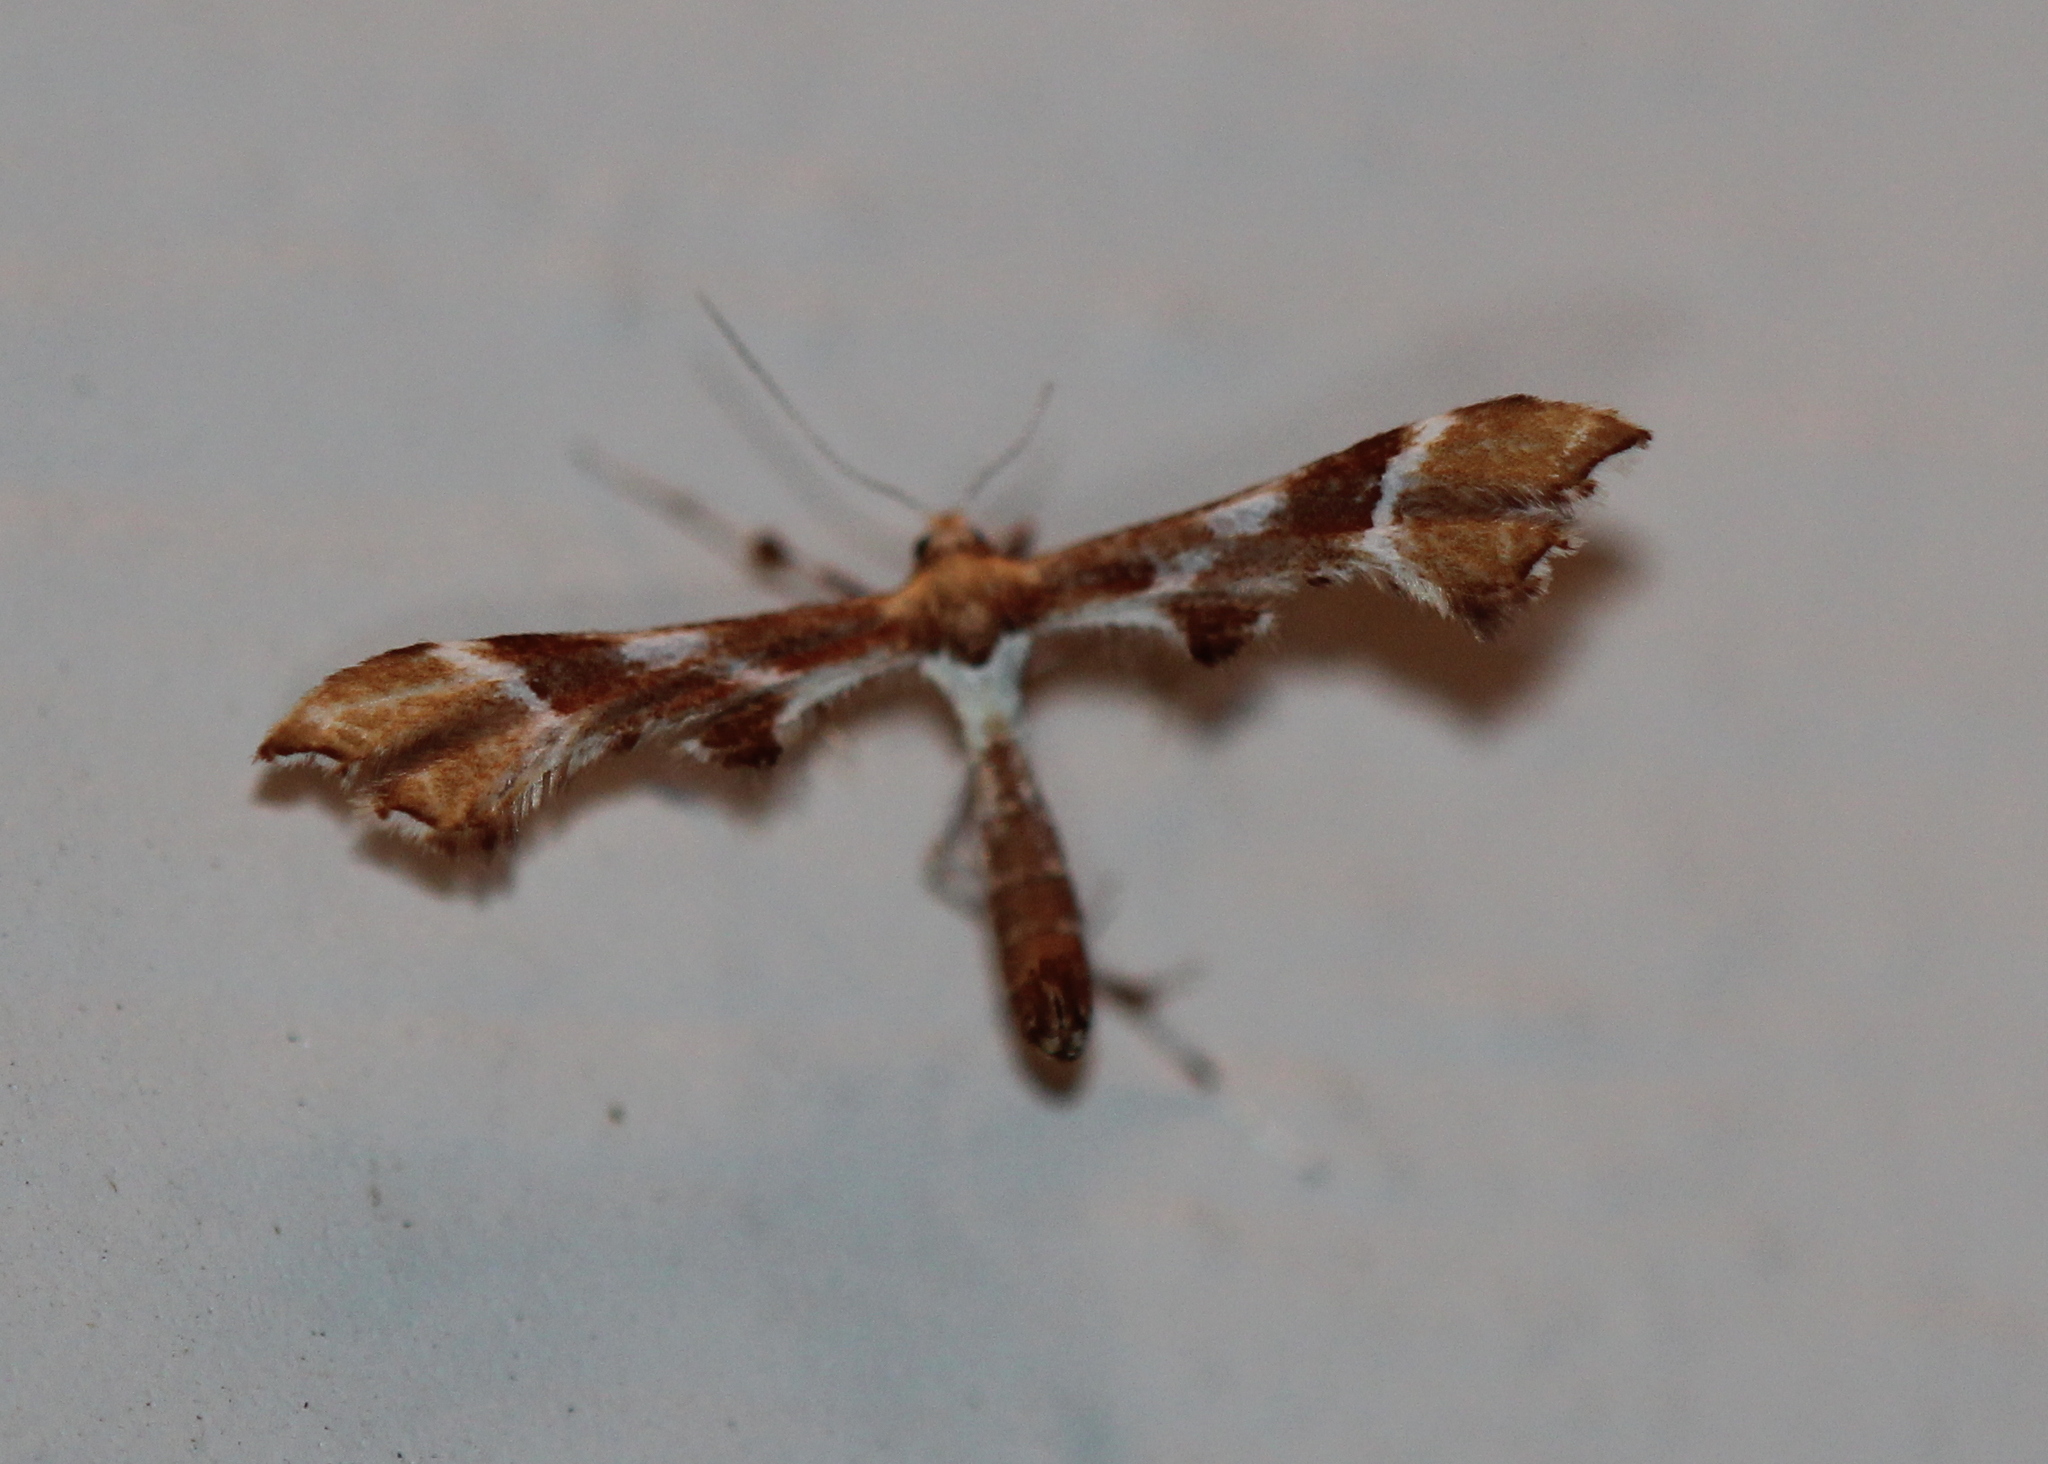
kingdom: Animalia
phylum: Arthropoda
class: Insecta
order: Lepidoptera
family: Pterophoridae
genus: Cnaemidophorus
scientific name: Cnaemidophorus rhododactyla
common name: Rose plume
